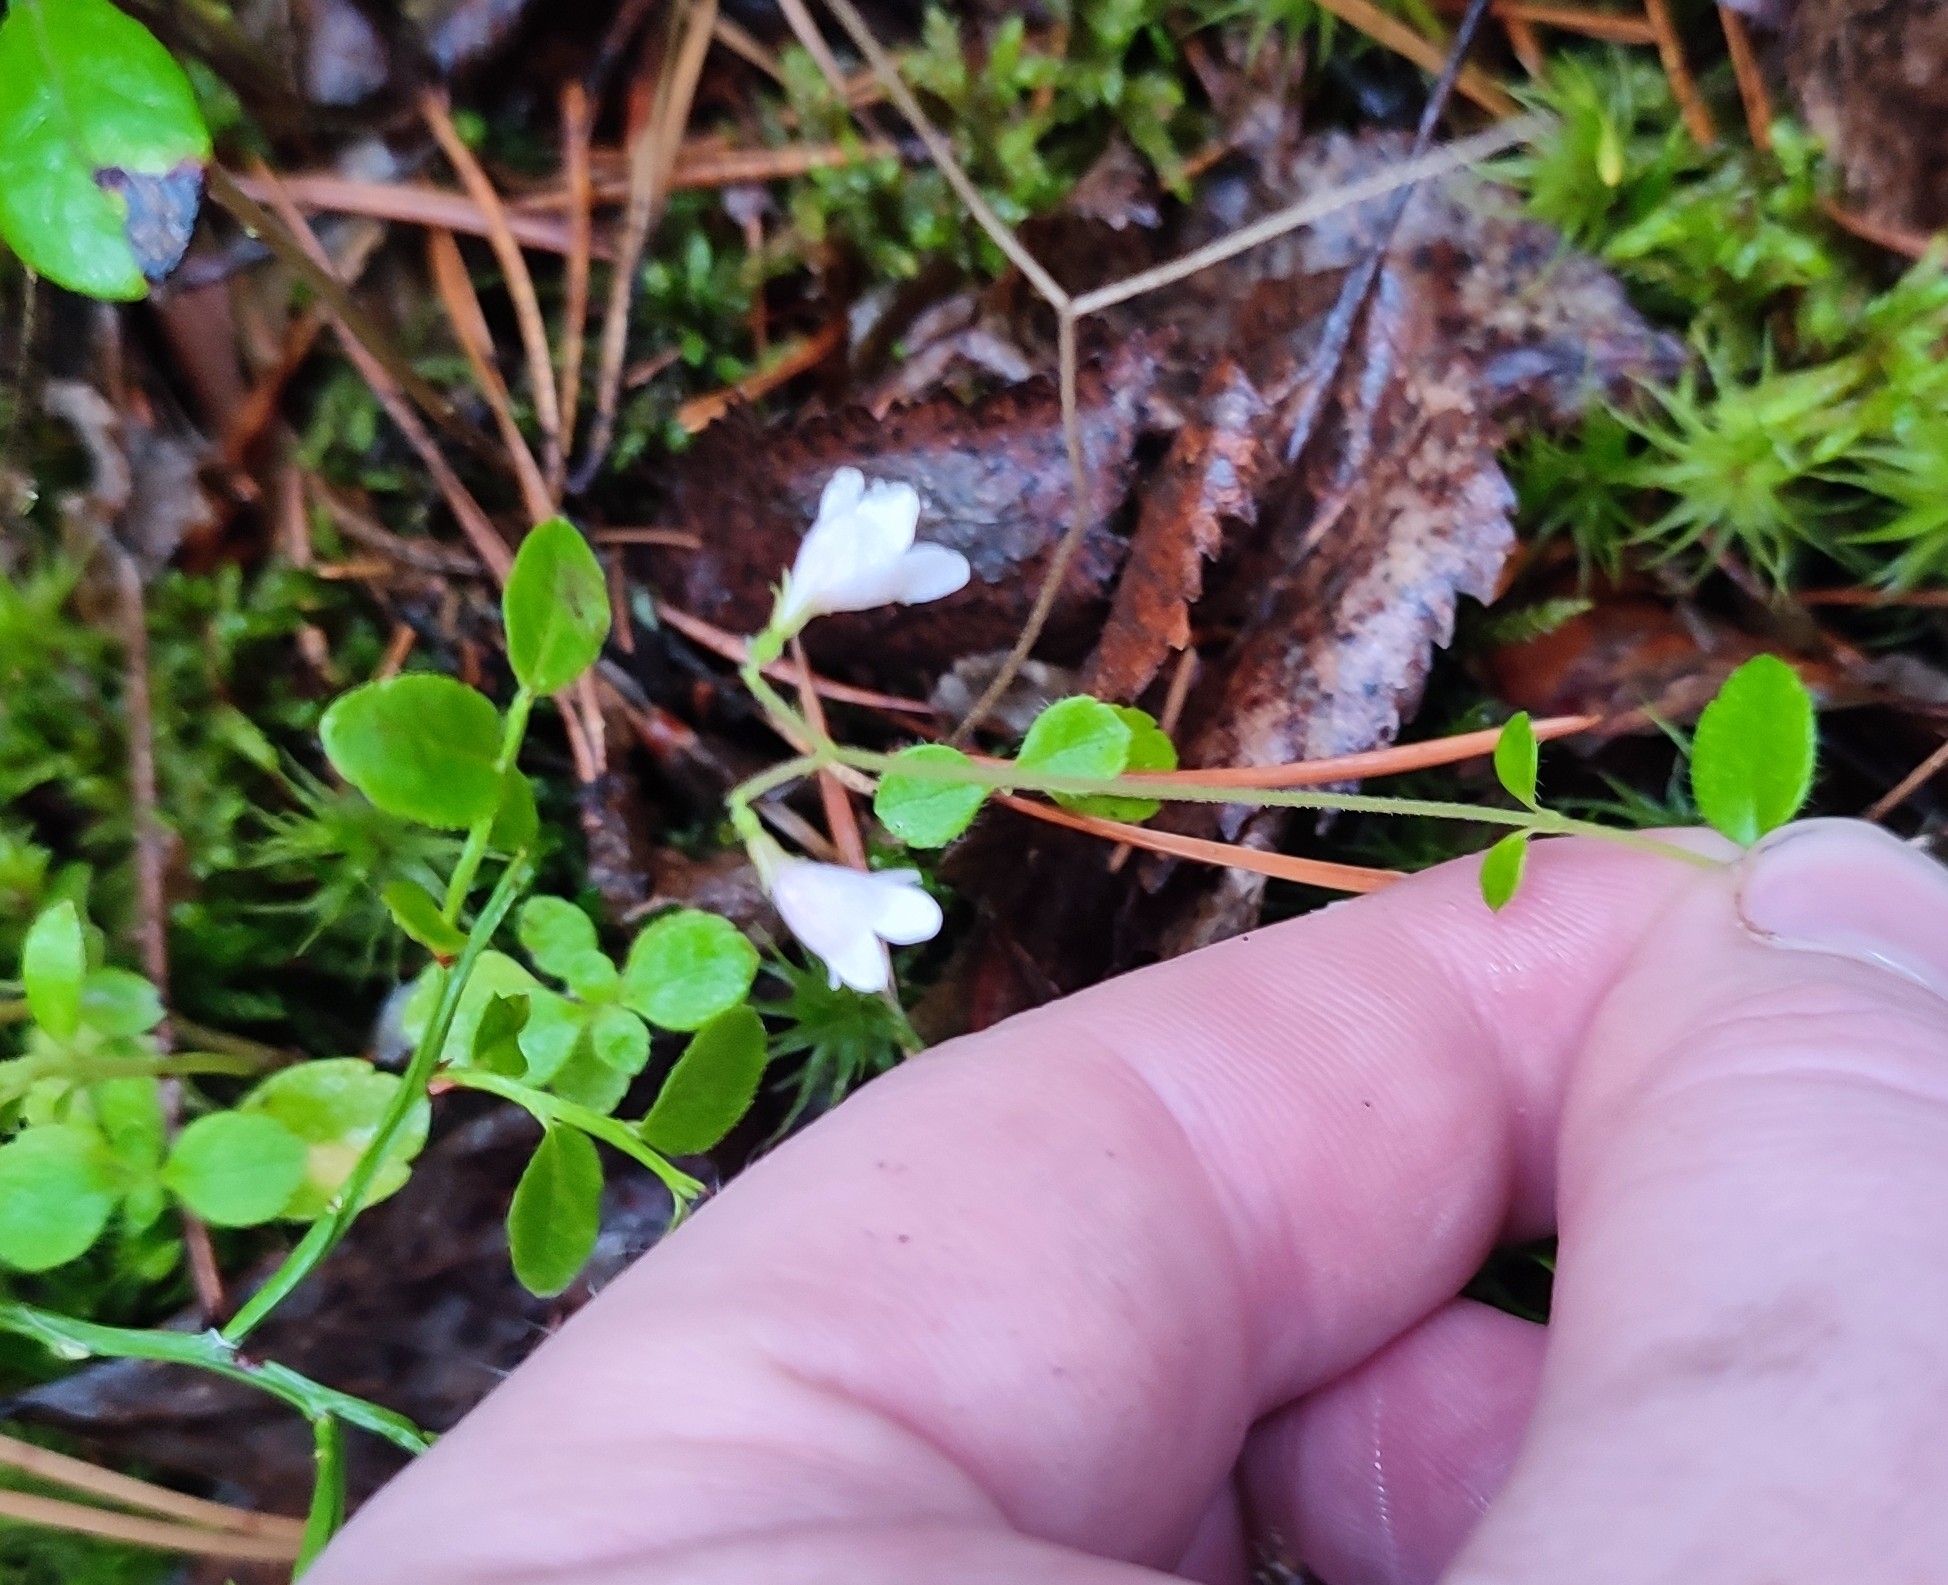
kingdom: Plantae
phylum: Tracheophyta
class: Magnoliopsida
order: Dipsacales
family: Caprifoliaceae
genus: Linnaea
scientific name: Linnaea borealis
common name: Twinflower
